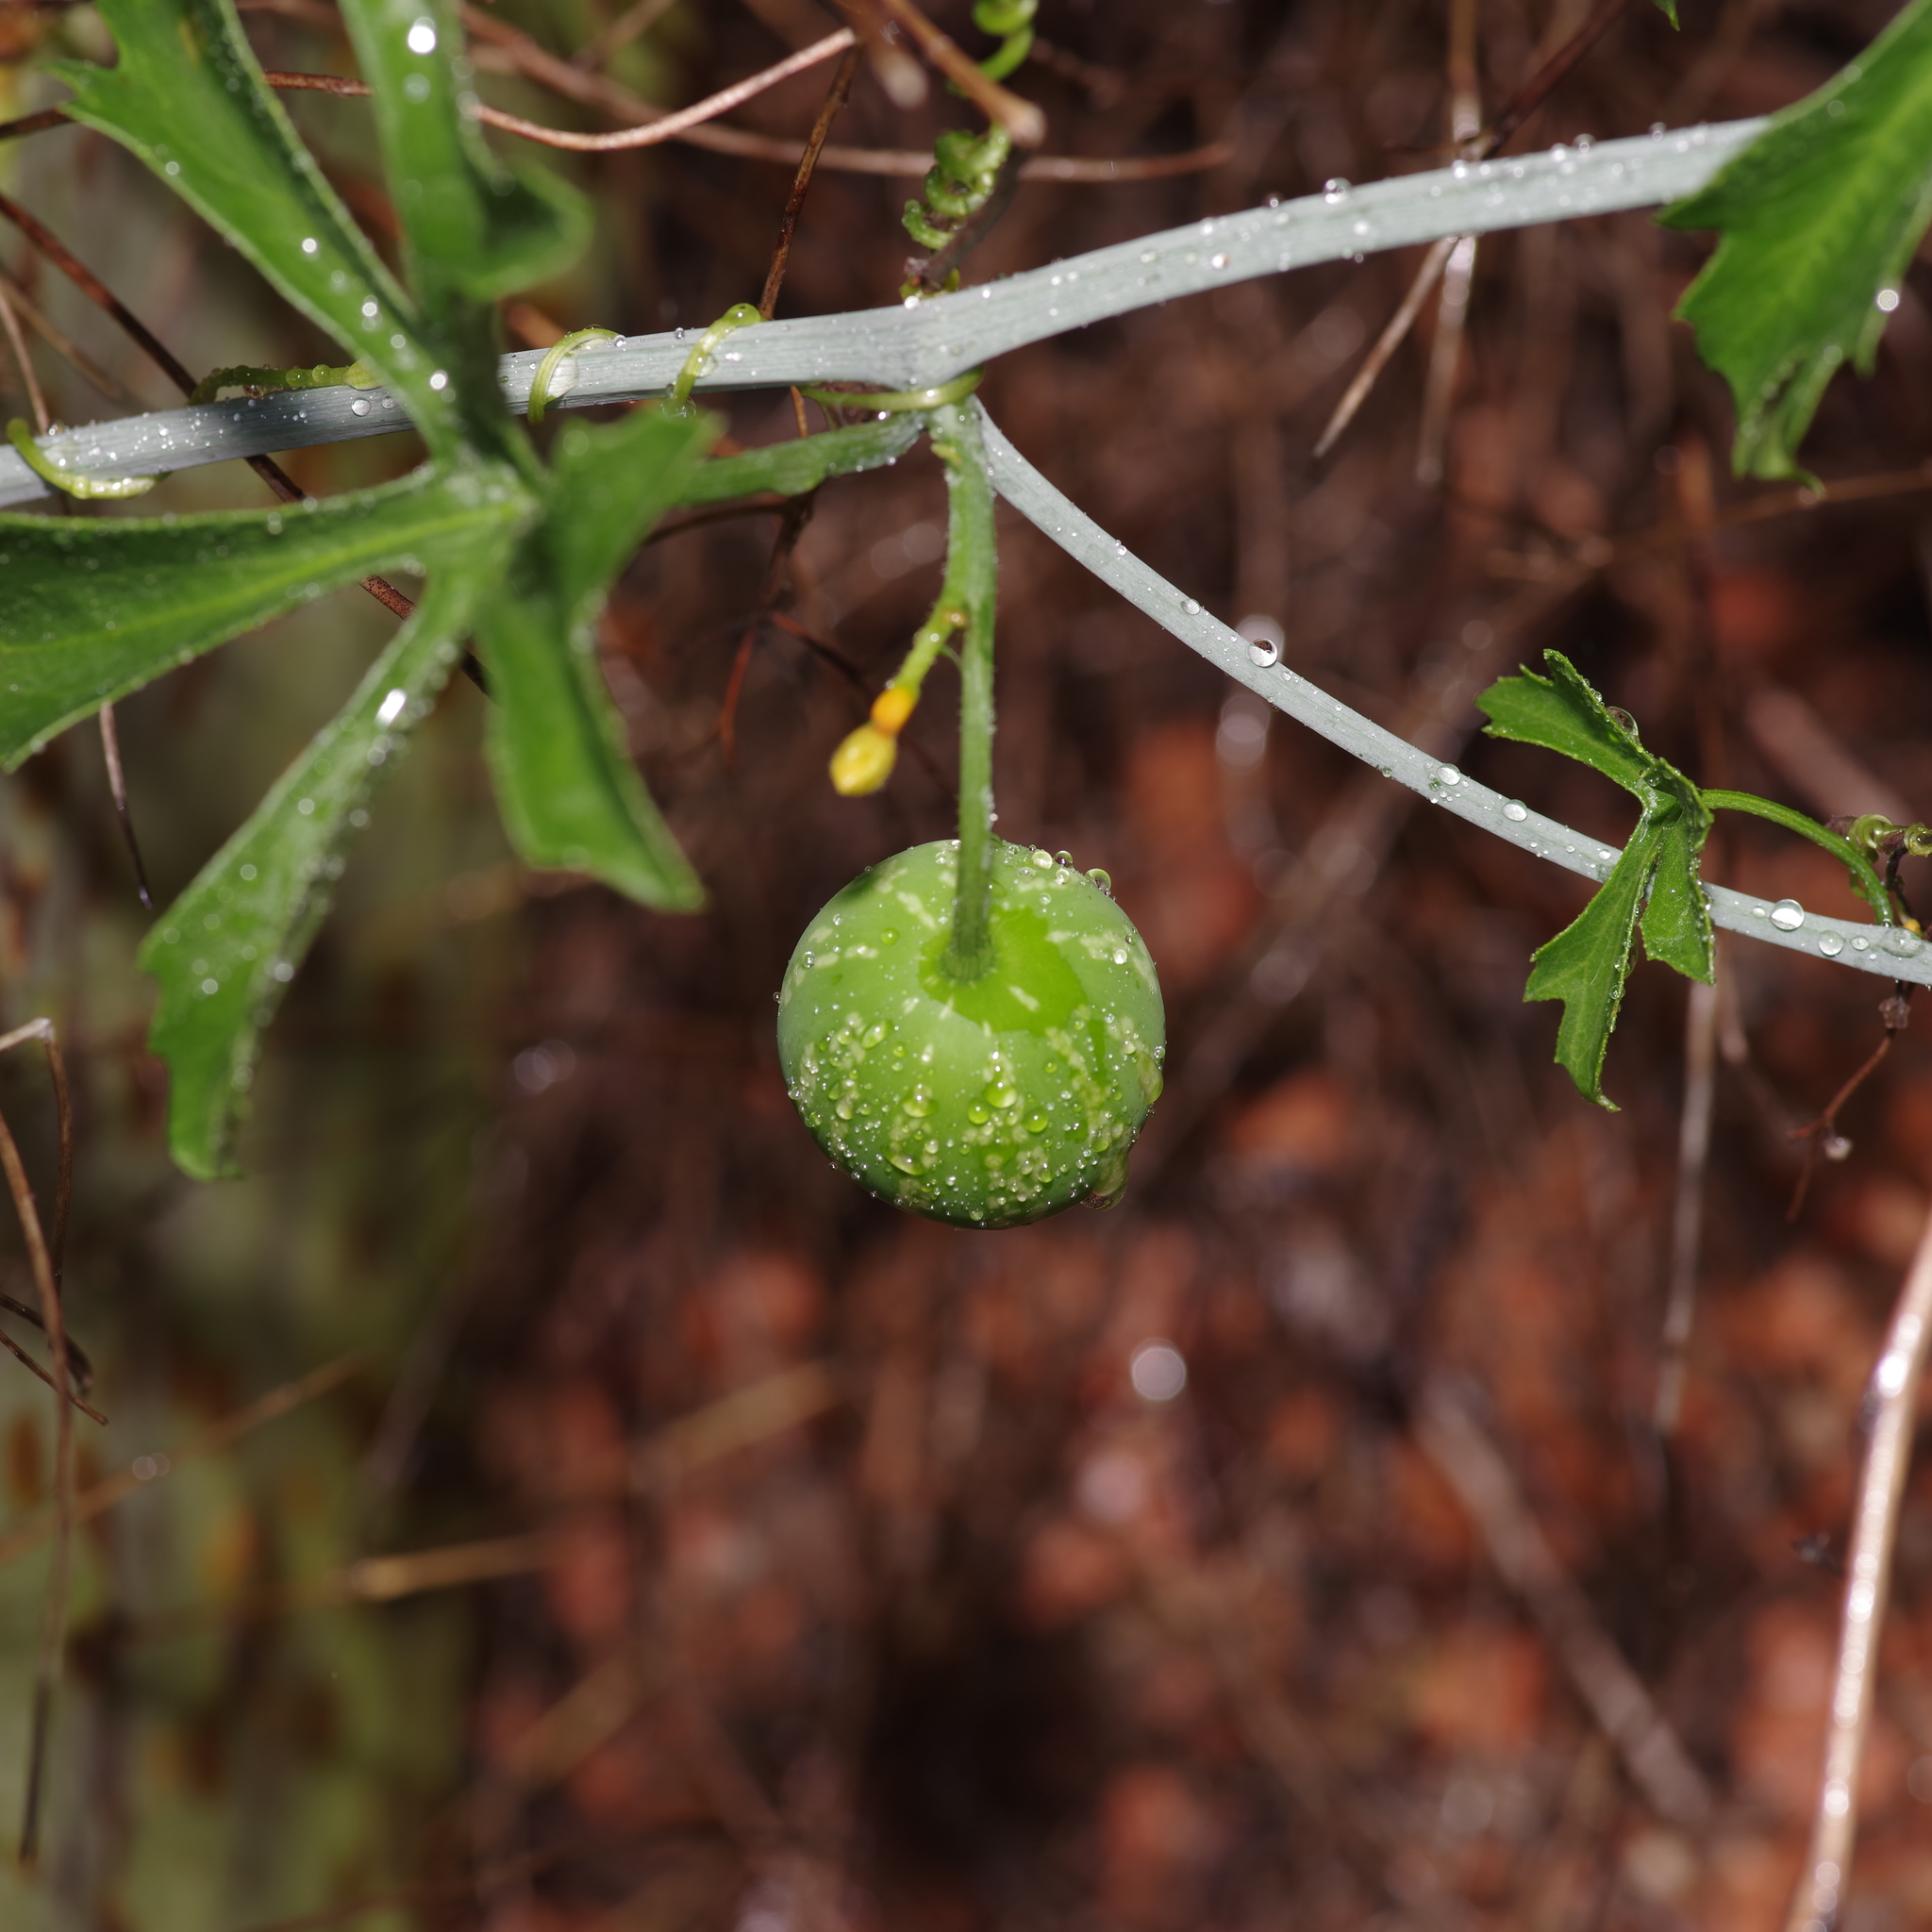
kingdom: Plantae
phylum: Tracheophyta
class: Magnoliopsida
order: Cucurbitales
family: Cucurbitaceae
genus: Ibervillea
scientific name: Ibervillea lindheimeri
